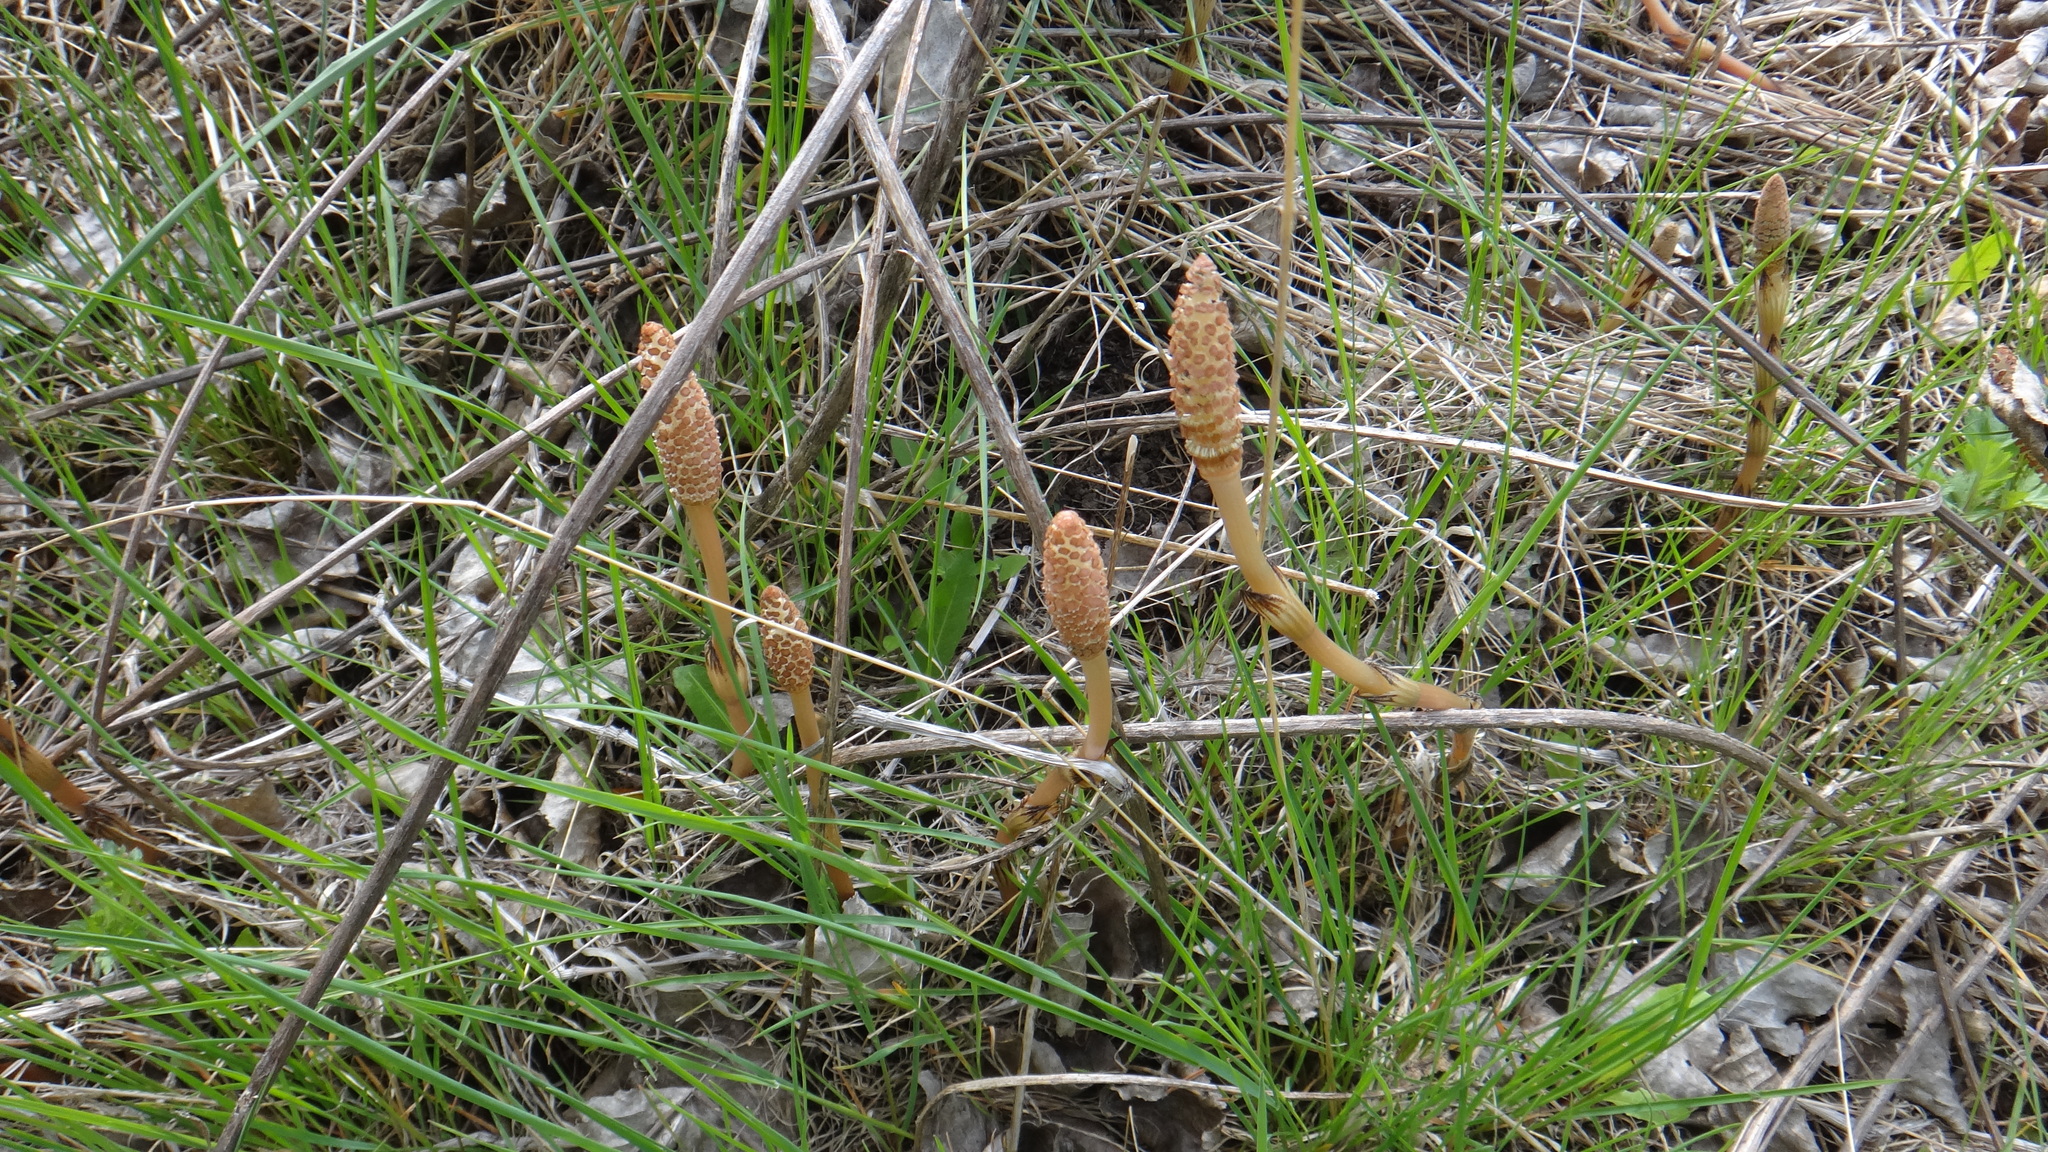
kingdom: Plantae
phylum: Tracheophyta
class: Polypodiopsida
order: Equisetales
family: Equisetaceae
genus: Equisetum
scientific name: Equisetum arvense
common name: Field horsetail
